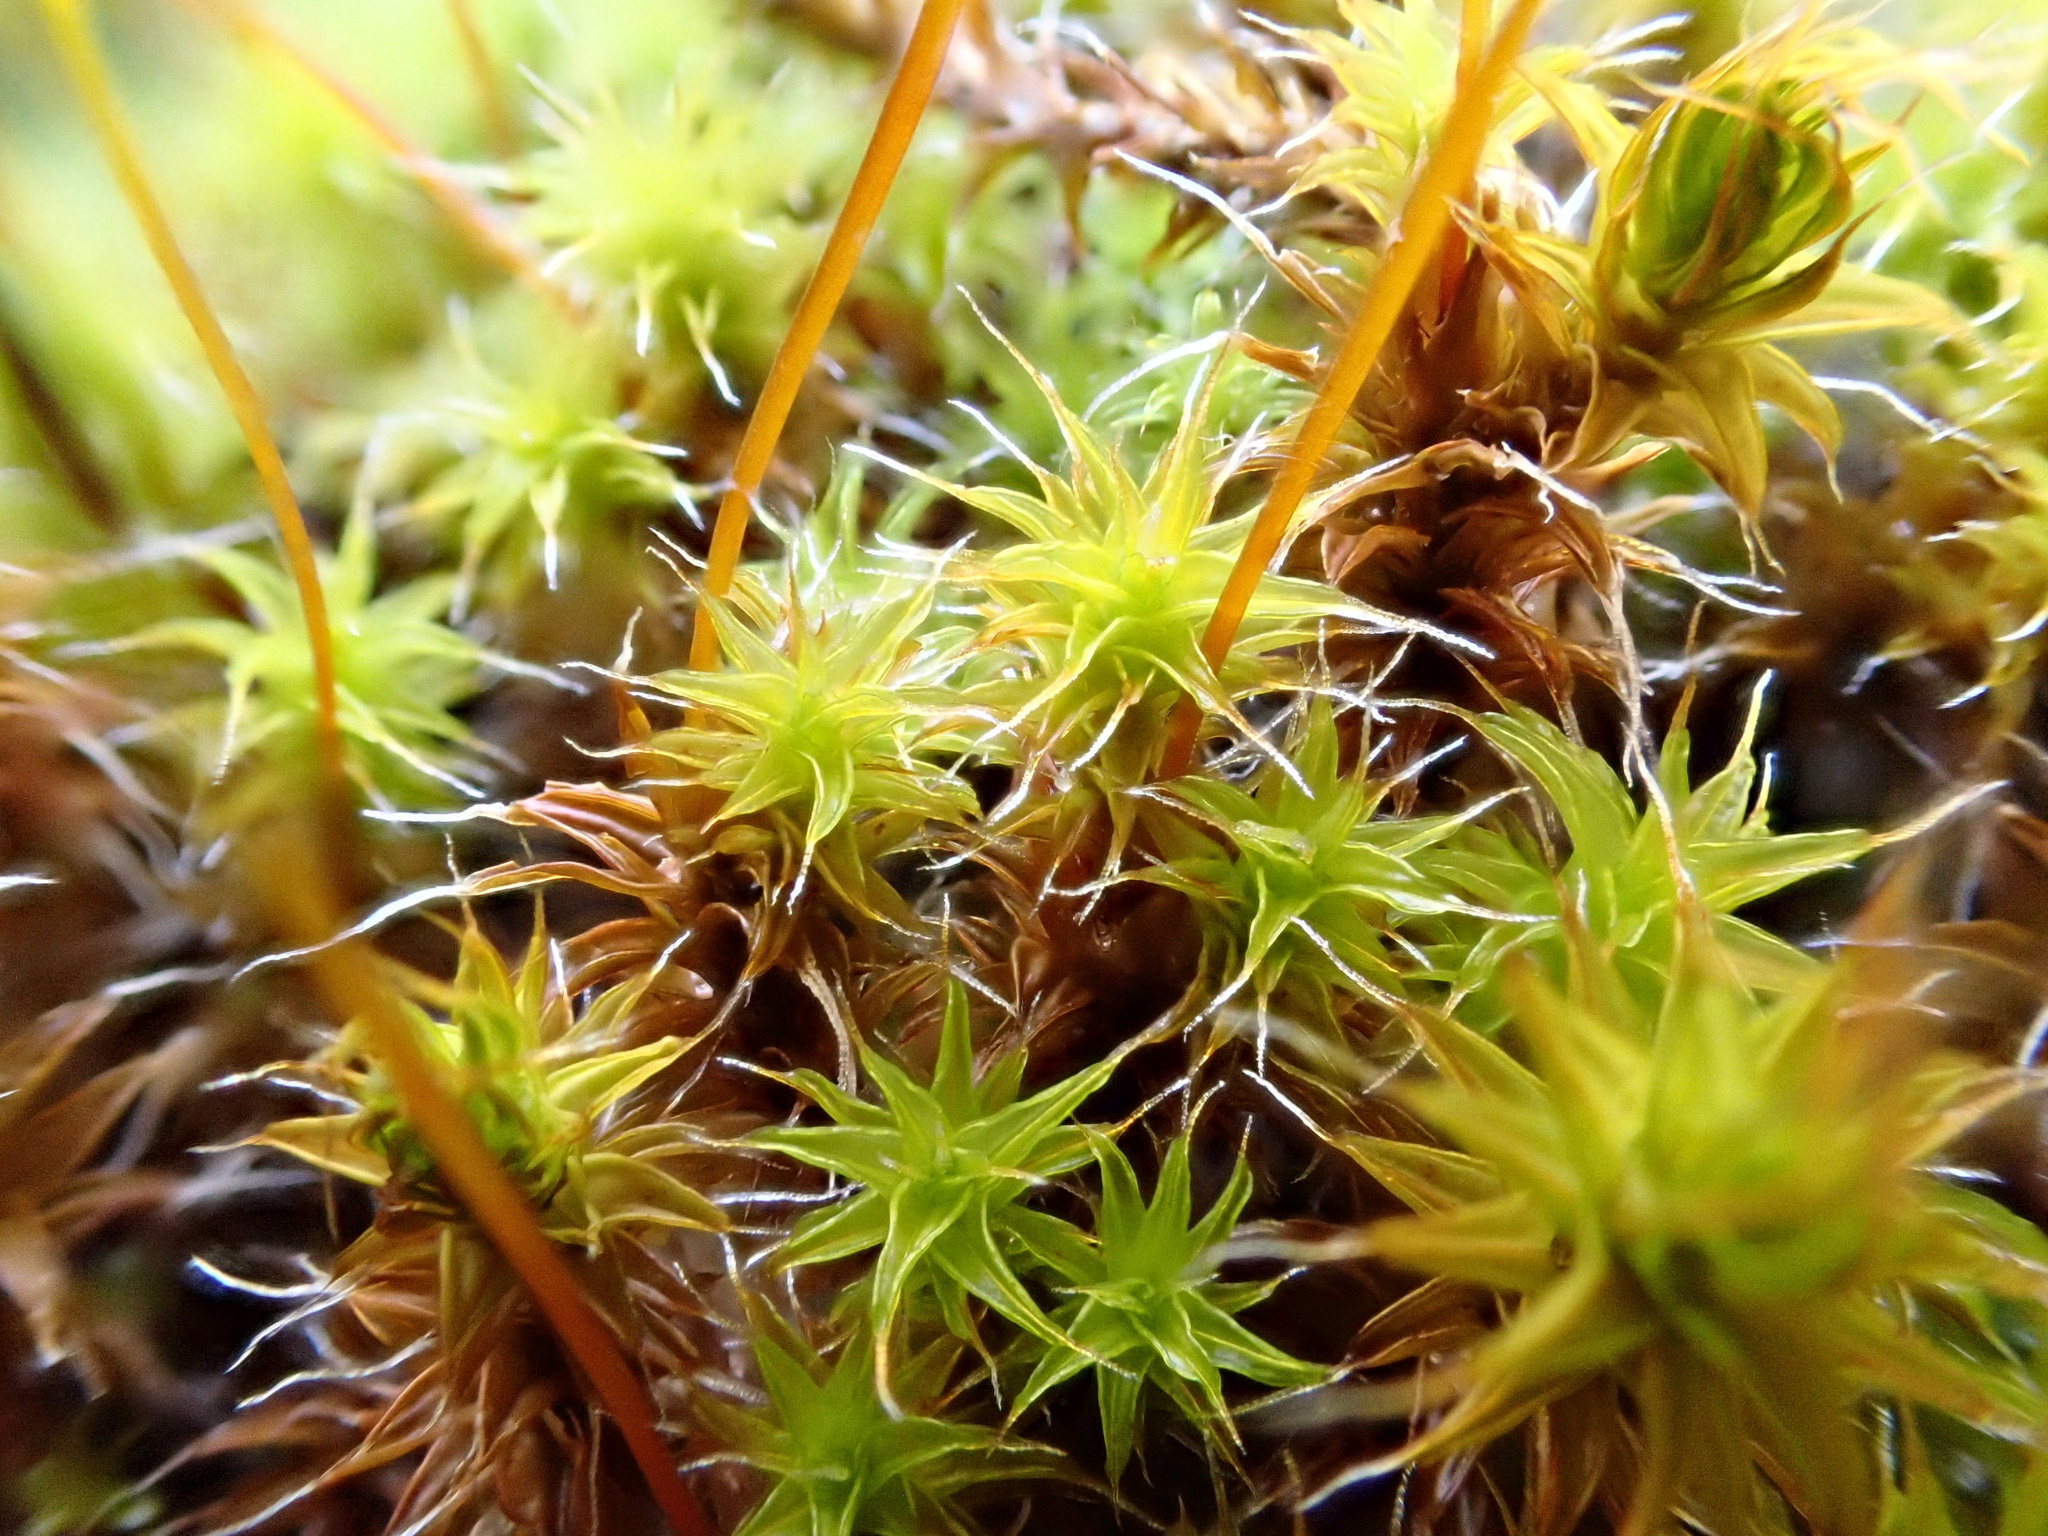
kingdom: Plantae
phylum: Bryophyta
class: Bryopsida
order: Pottiales
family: Pottiaceae
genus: Syntrichia
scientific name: Syntrichia ruralis
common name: Sidewalk screw moss
